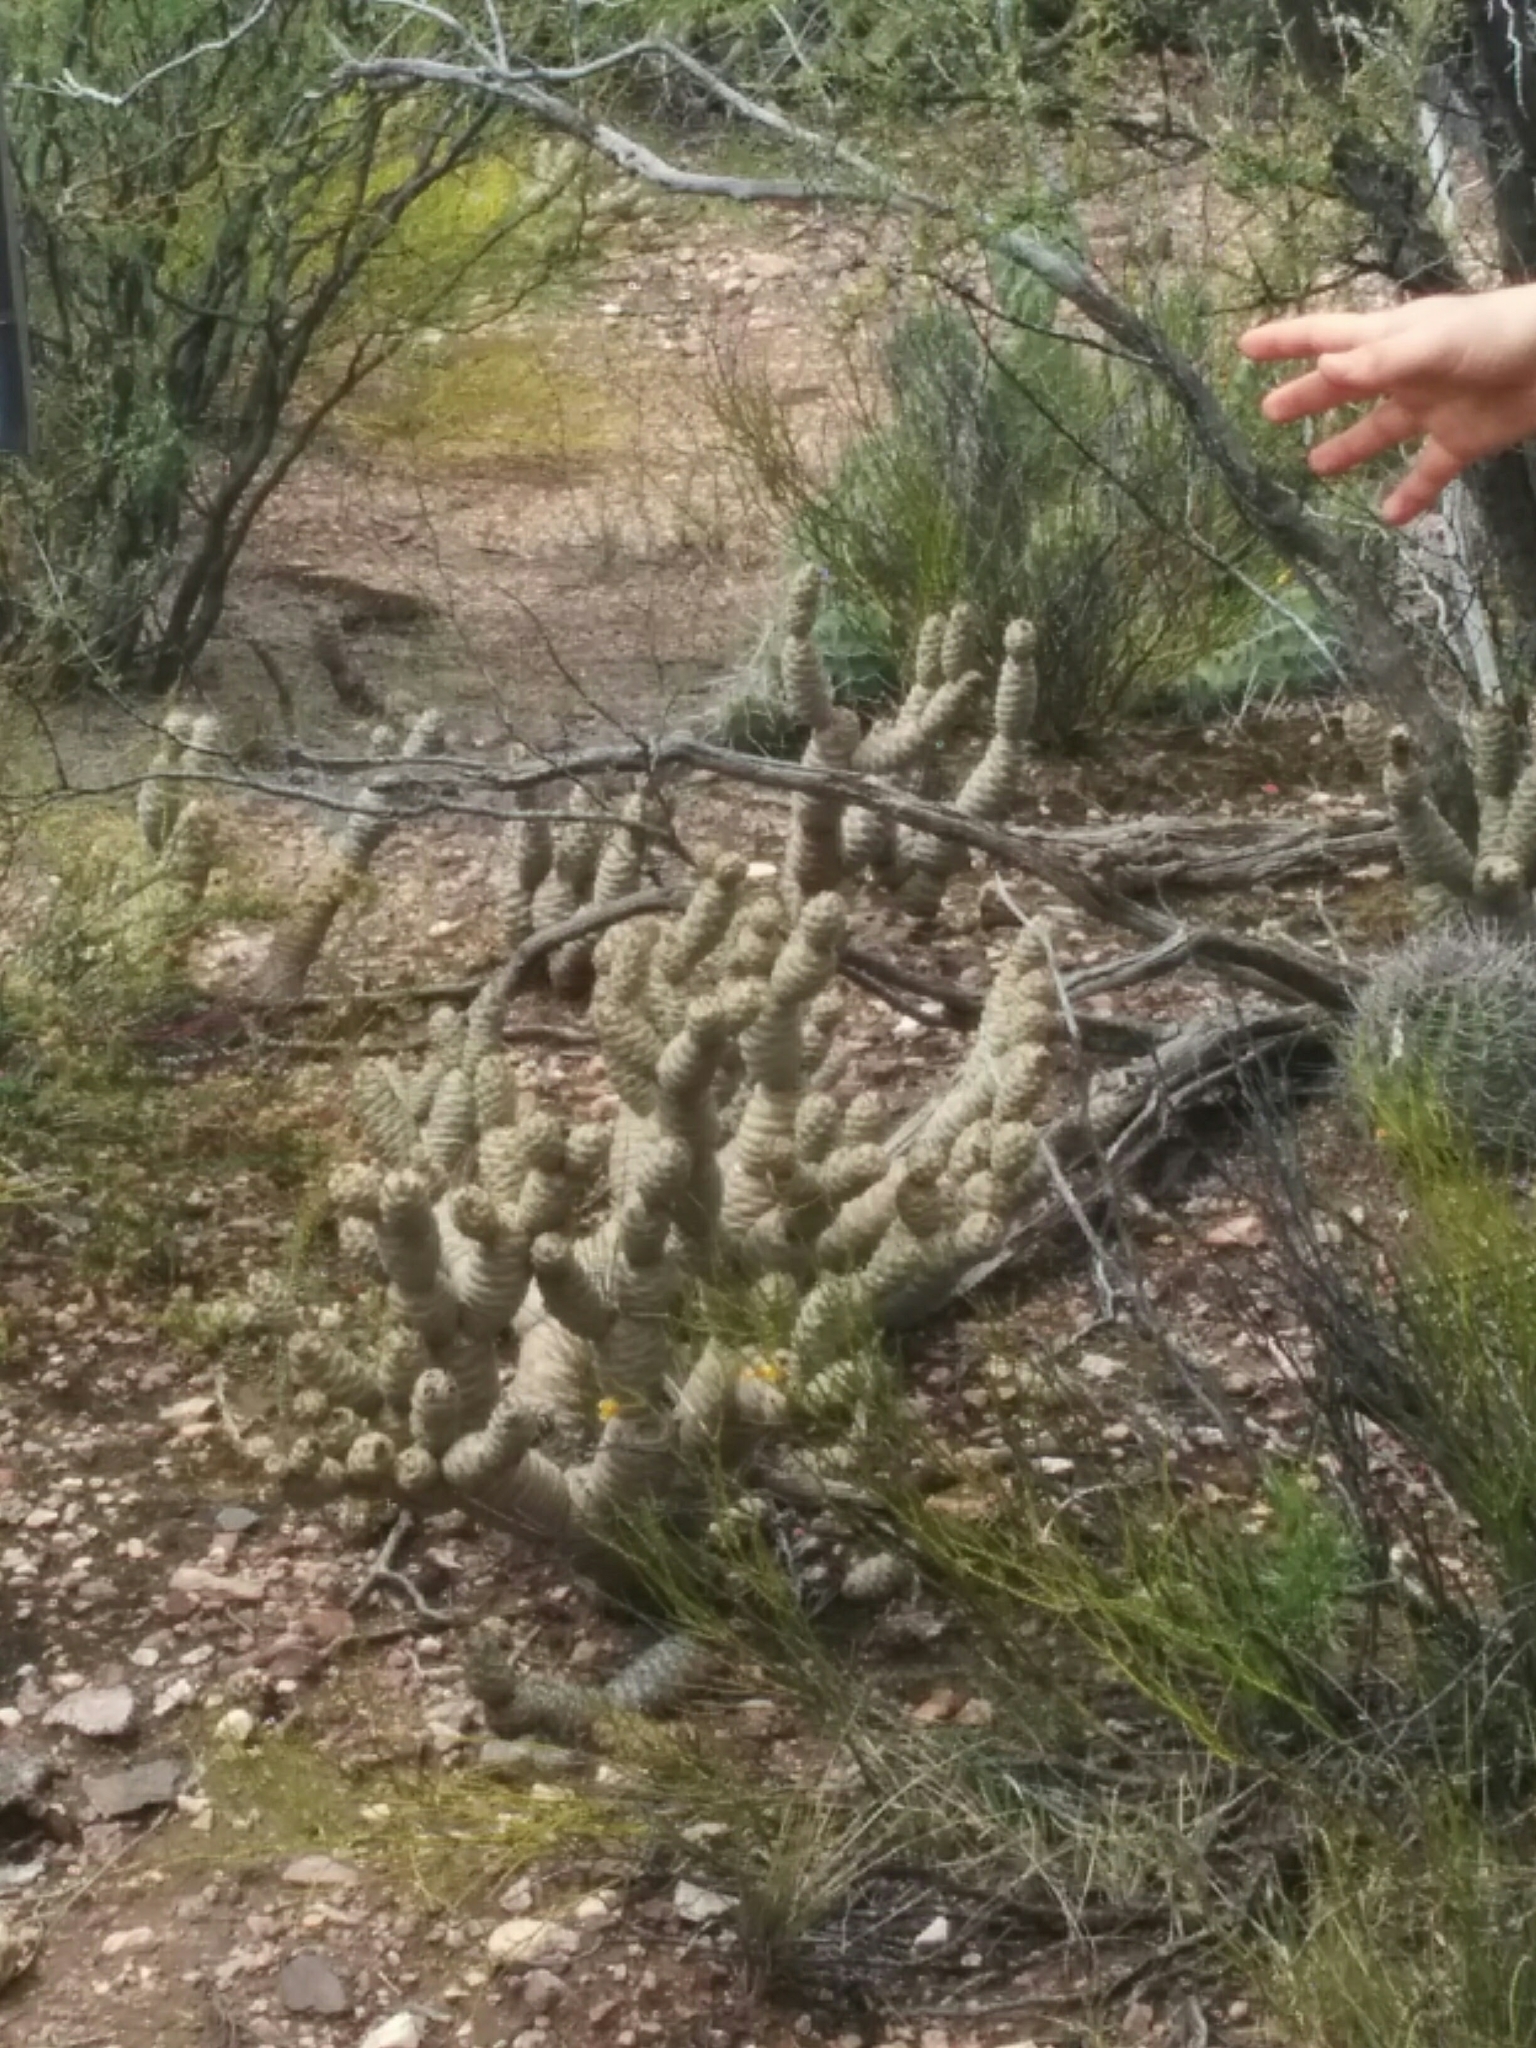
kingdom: Plantae
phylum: Tracheophyta
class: Magnoliopsida
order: Caryophyllales
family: Cactaceae
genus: Tephrocactus
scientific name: Tephrocactus articulatus
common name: Paper cactus
